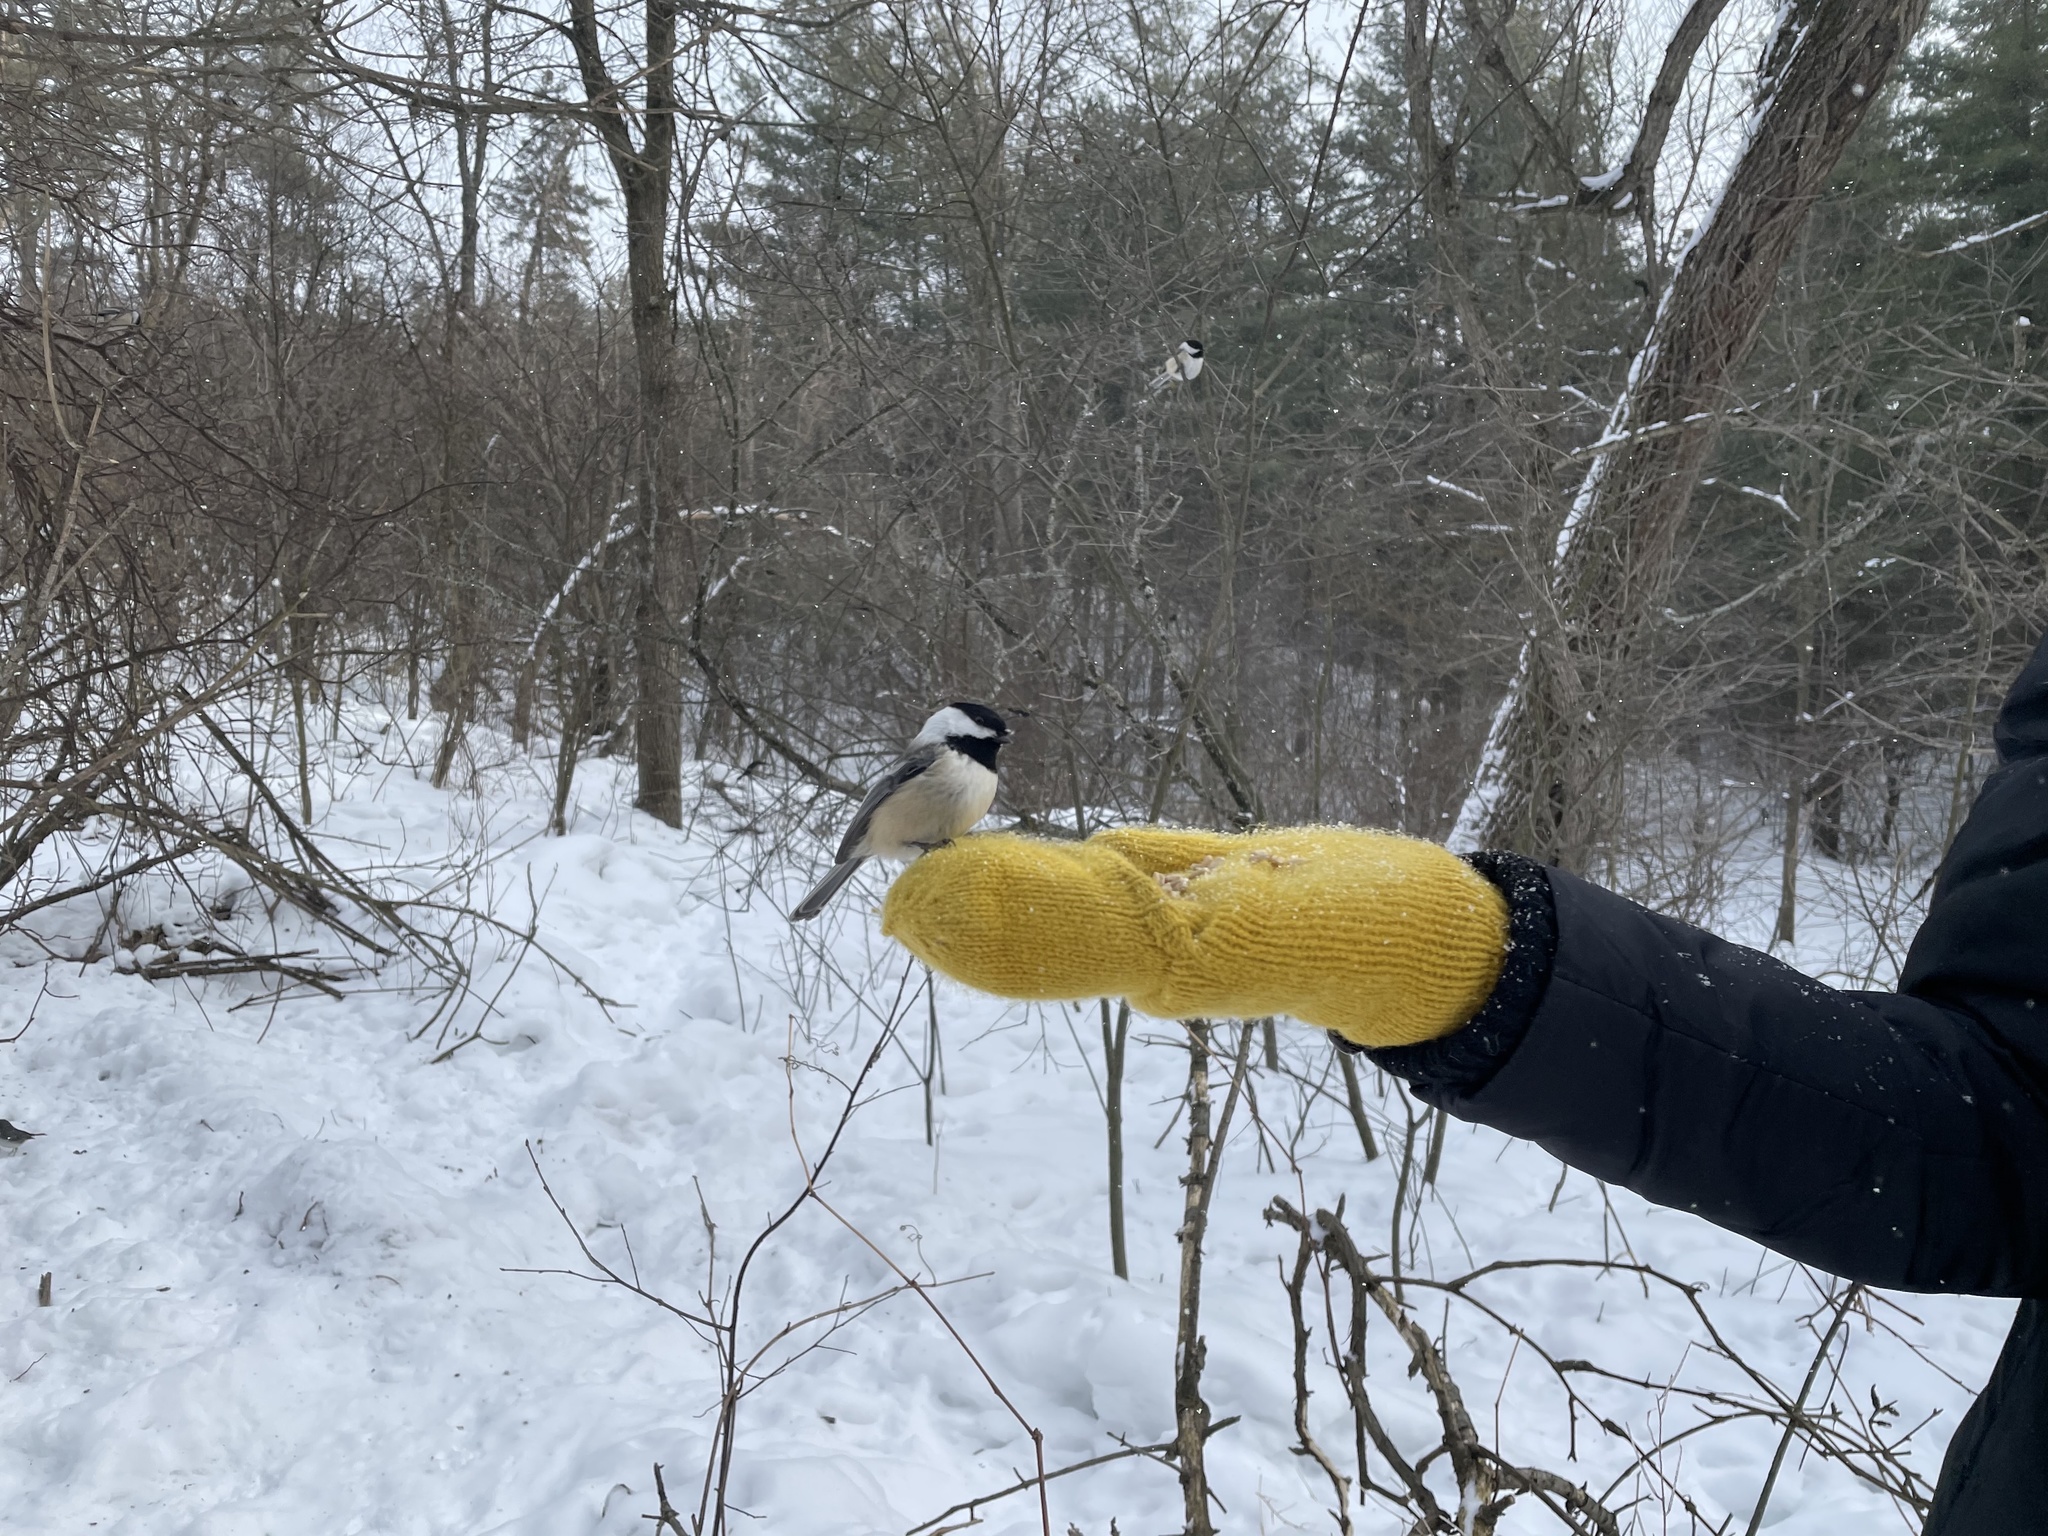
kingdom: Animalia
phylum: Chordata
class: Aves
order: Passeriformes
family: Paridae
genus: Poecile
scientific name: Poecile atricapillus
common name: Black-capped chickadee
